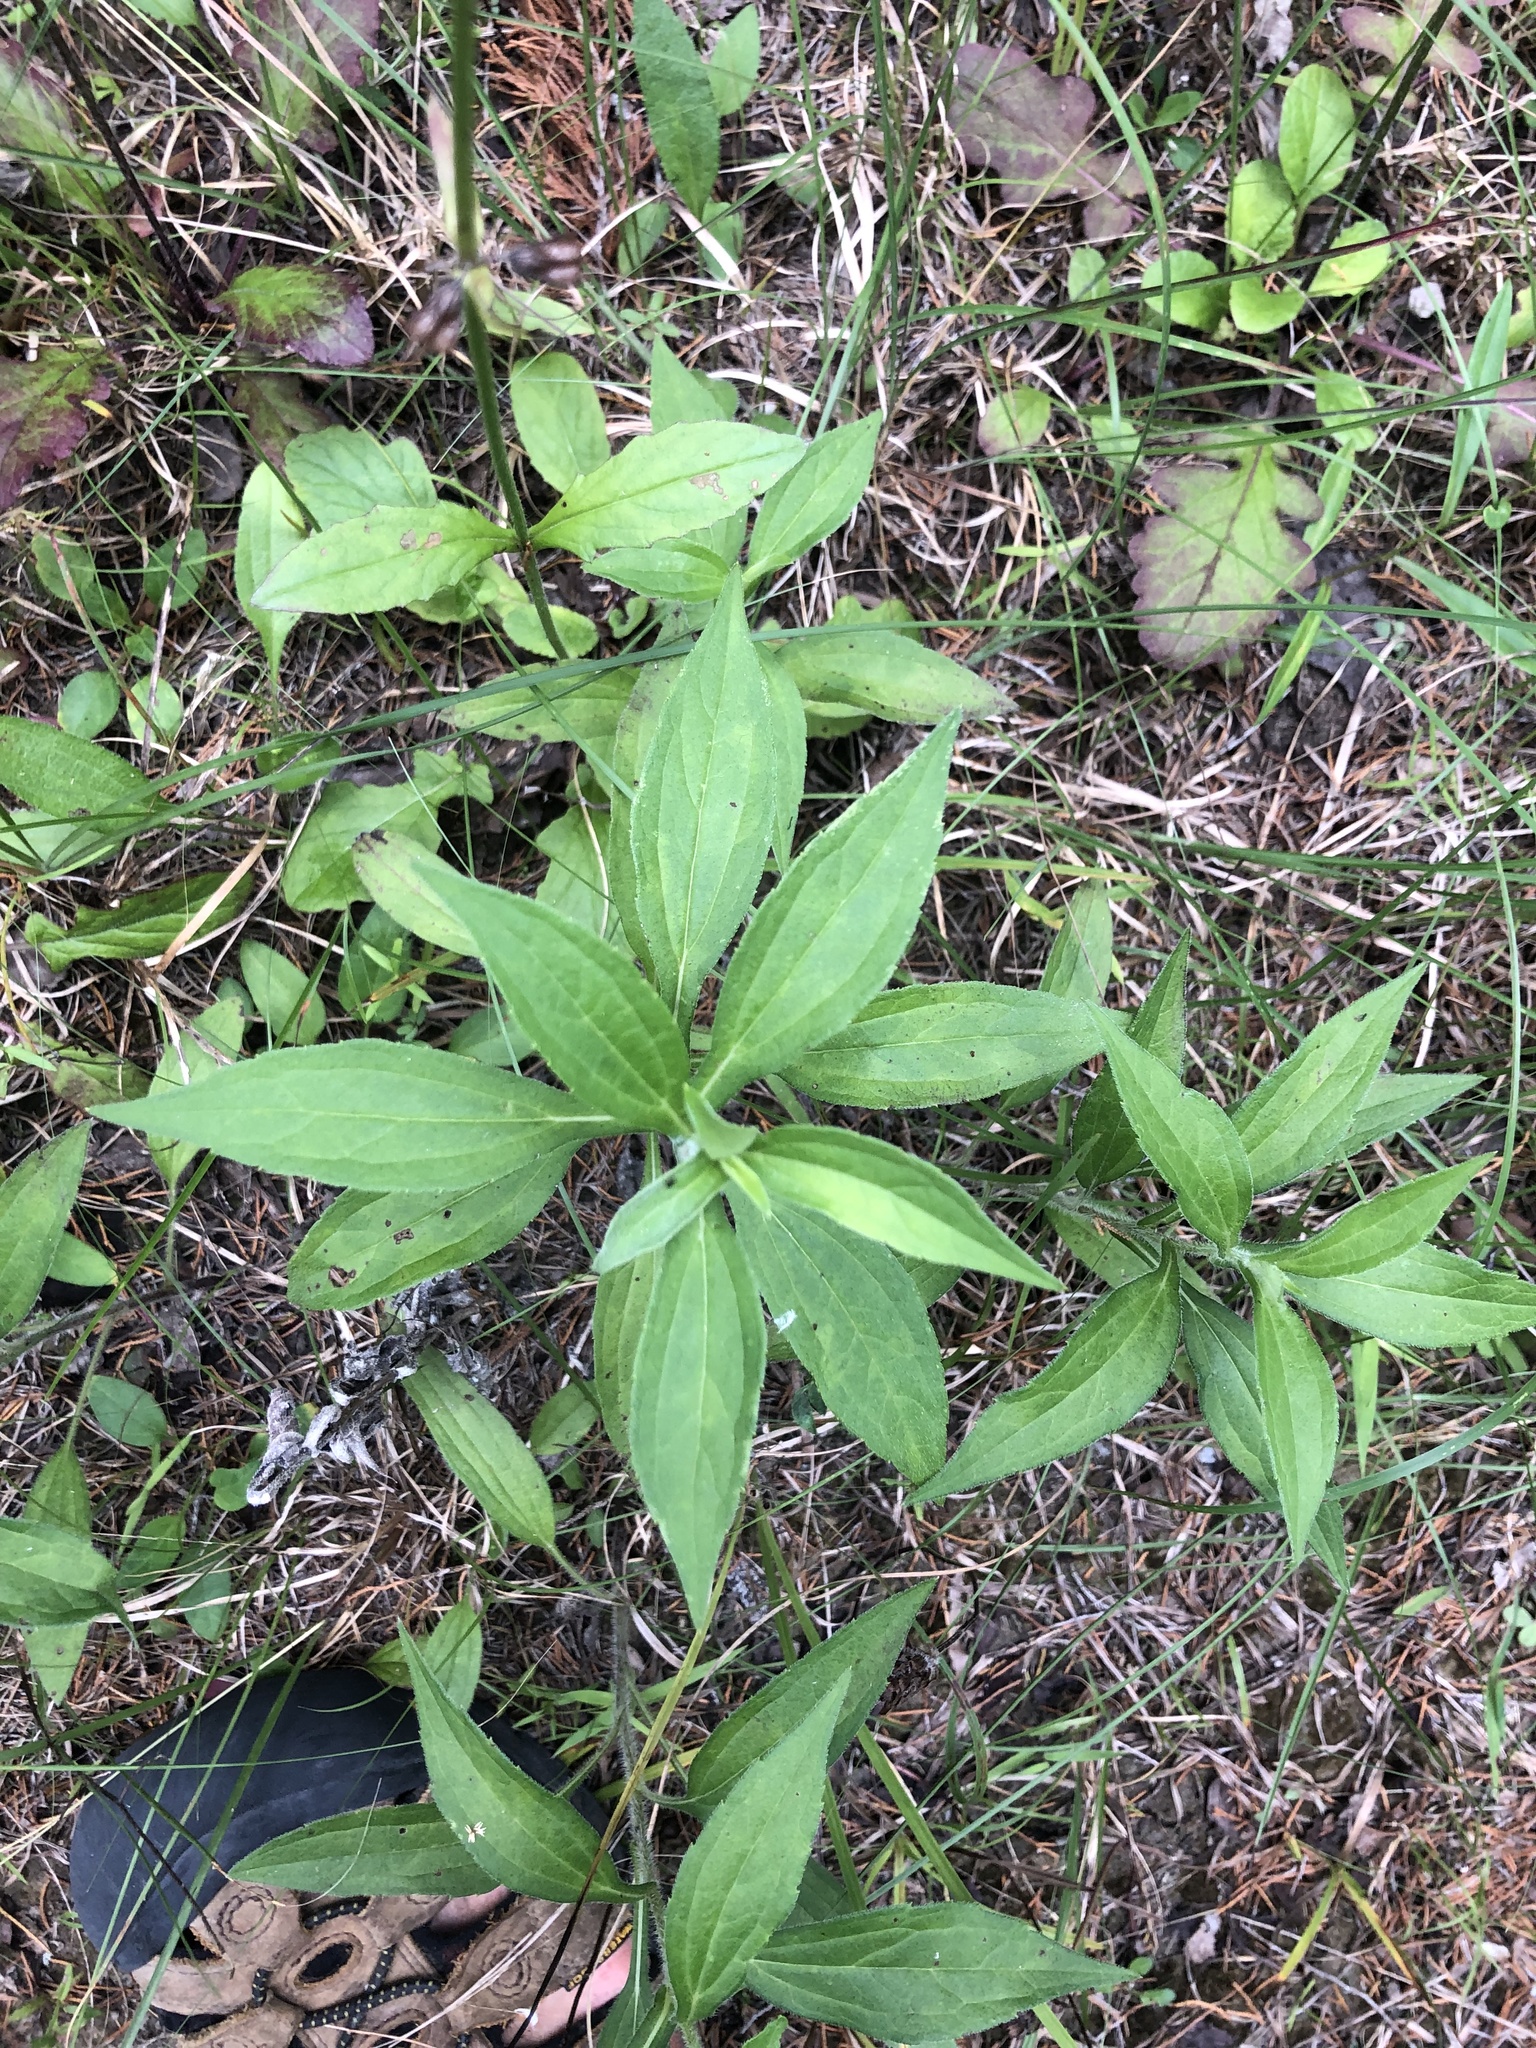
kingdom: Plantae
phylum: Tracheophyta
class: Magnoliopsida
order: Asterales
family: Asteraceae
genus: Rudbeckia
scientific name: Rudbeckia terranigrae
